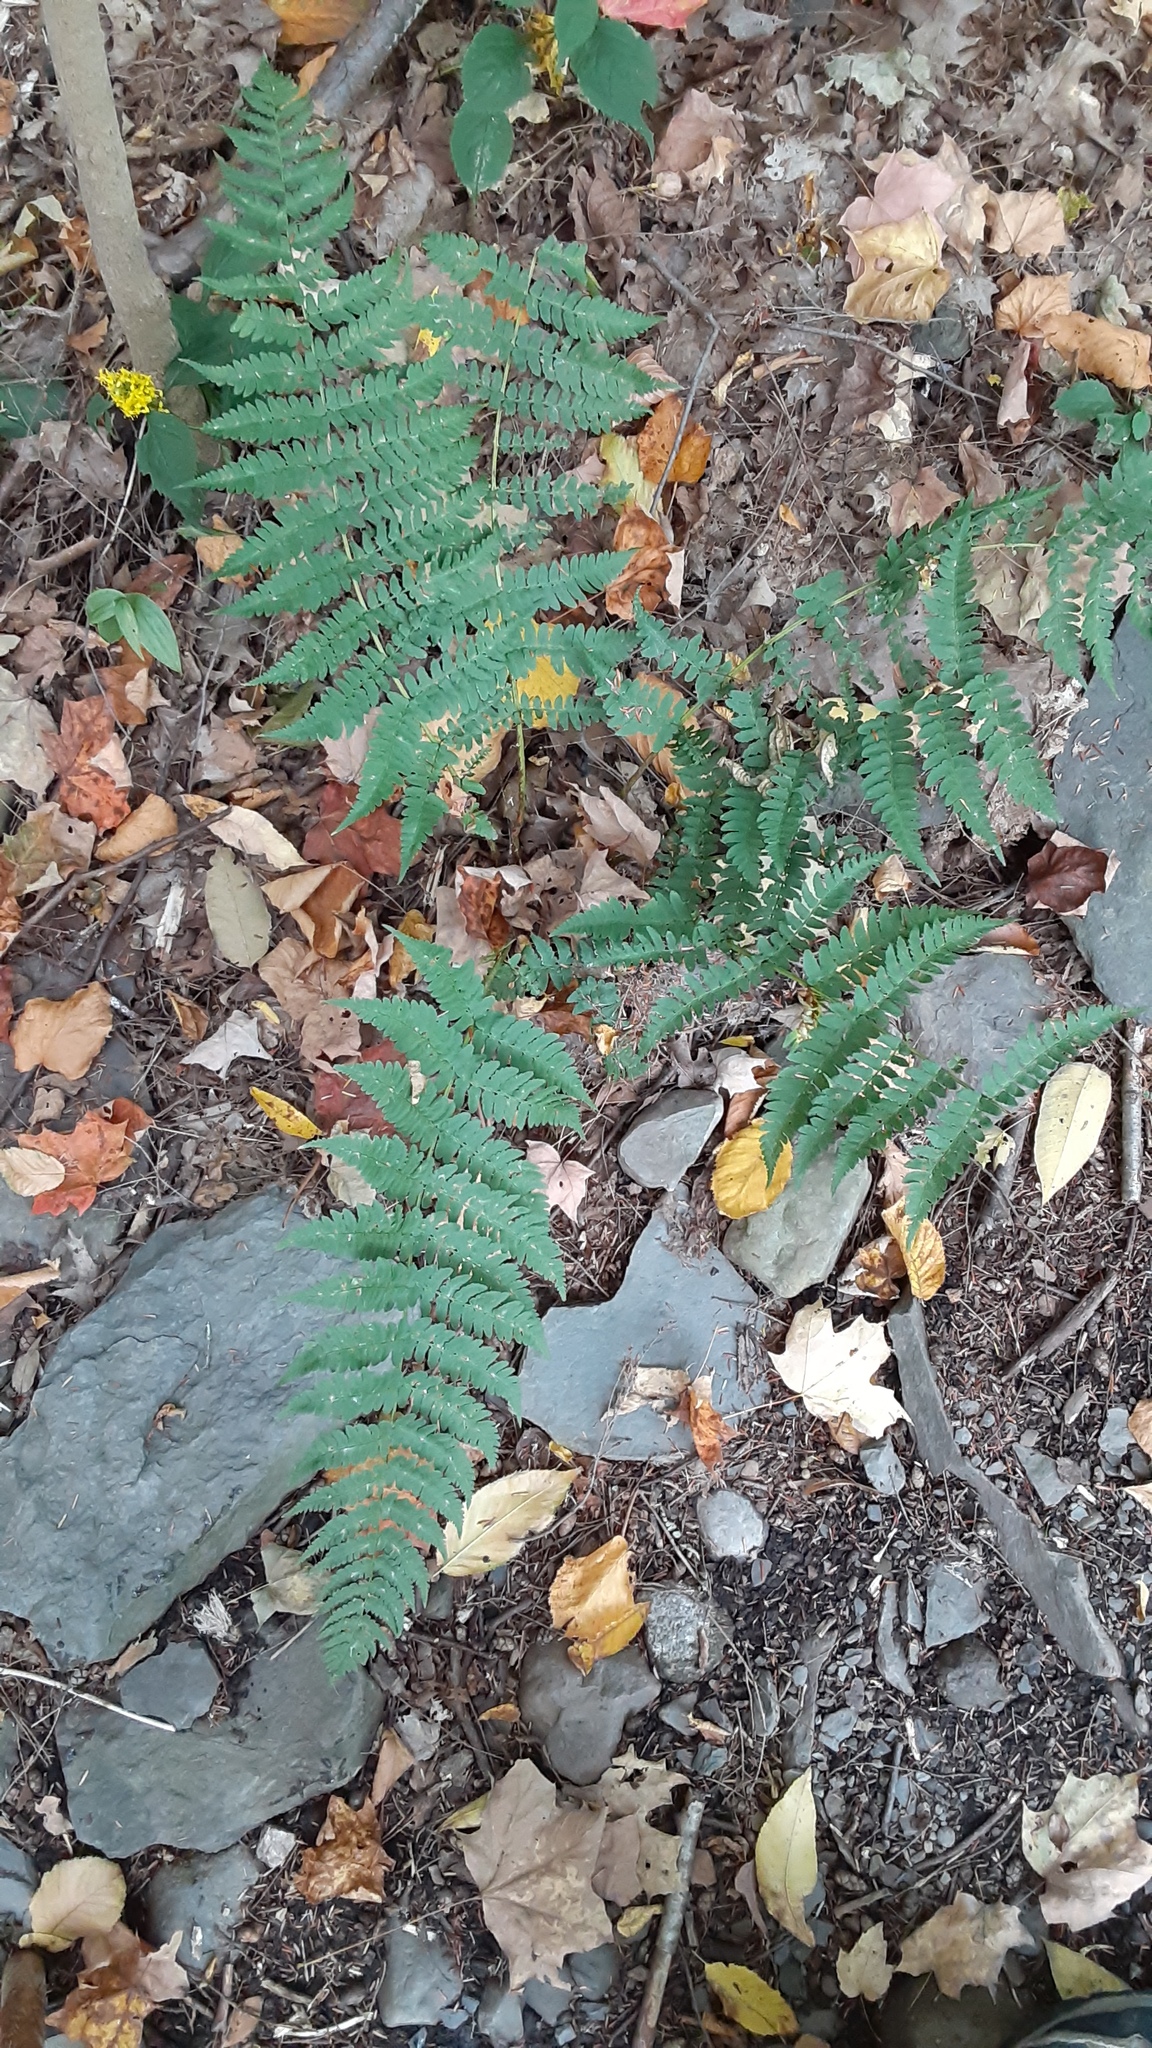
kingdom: Plantae
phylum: Tracheophyta
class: Polypodiopsida
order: Polypodiales
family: Dryopteridaceae
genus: Dryopteris
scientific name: Dryopteris marginalis
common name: Marginal wood fern
